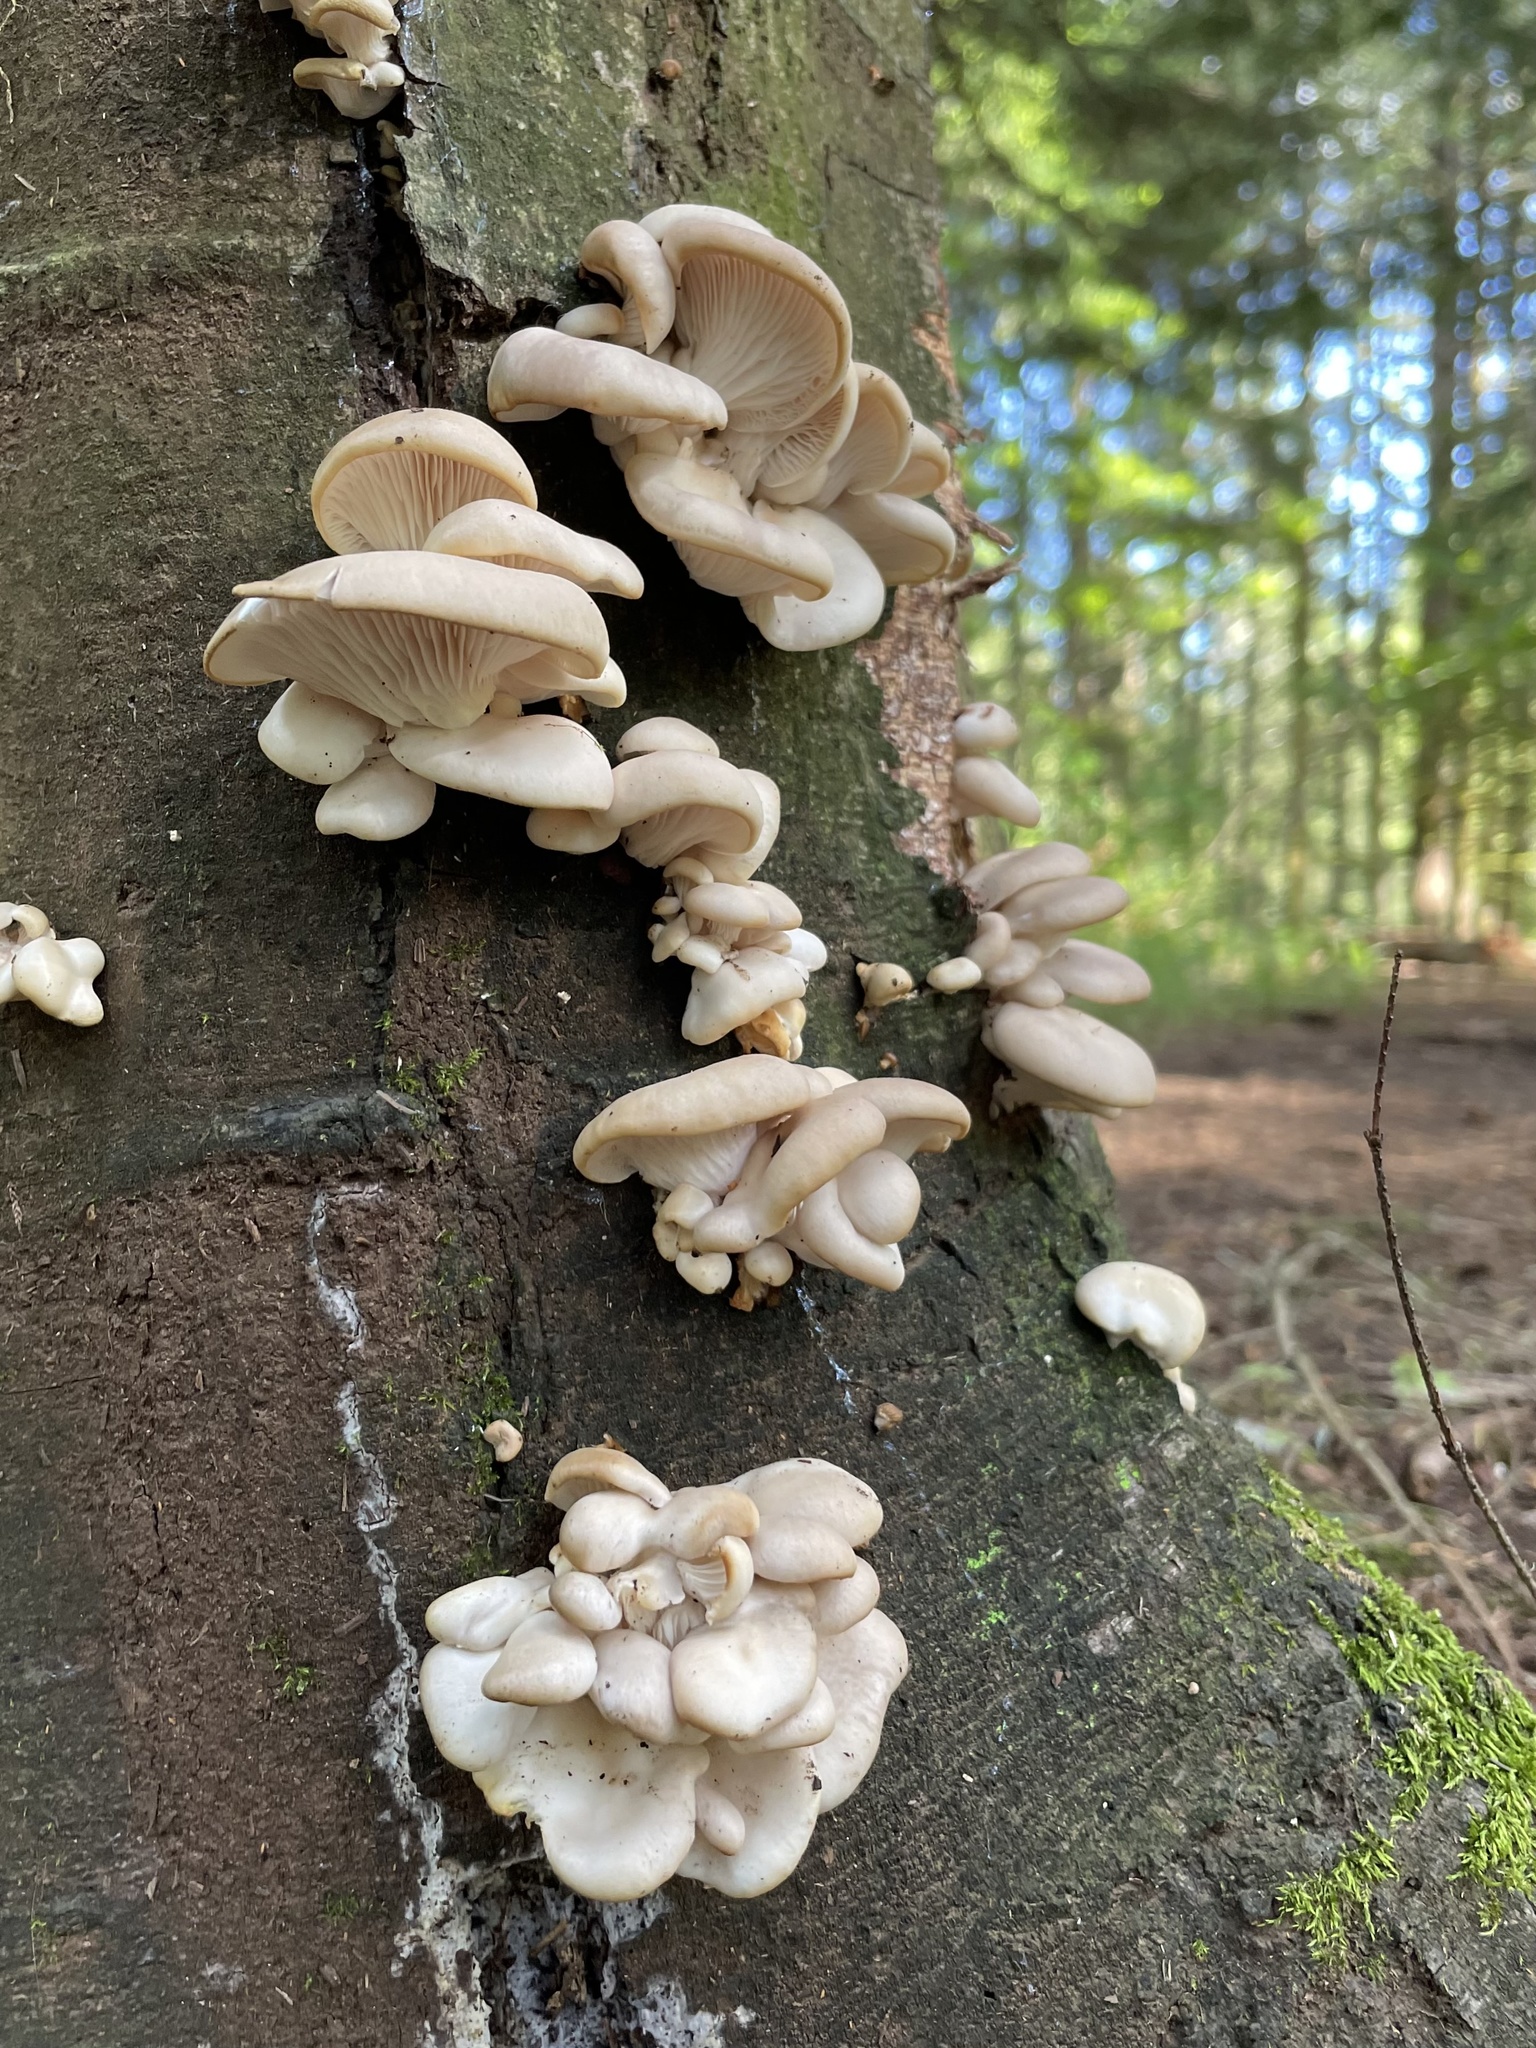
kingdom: Fungi
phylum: Basidiomycota
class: Agaricomycetes
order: Agaricales
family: Pleurotaceae
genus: Pleurotus
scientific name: Pleurotus ostreatus
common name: Oyster mushroom
